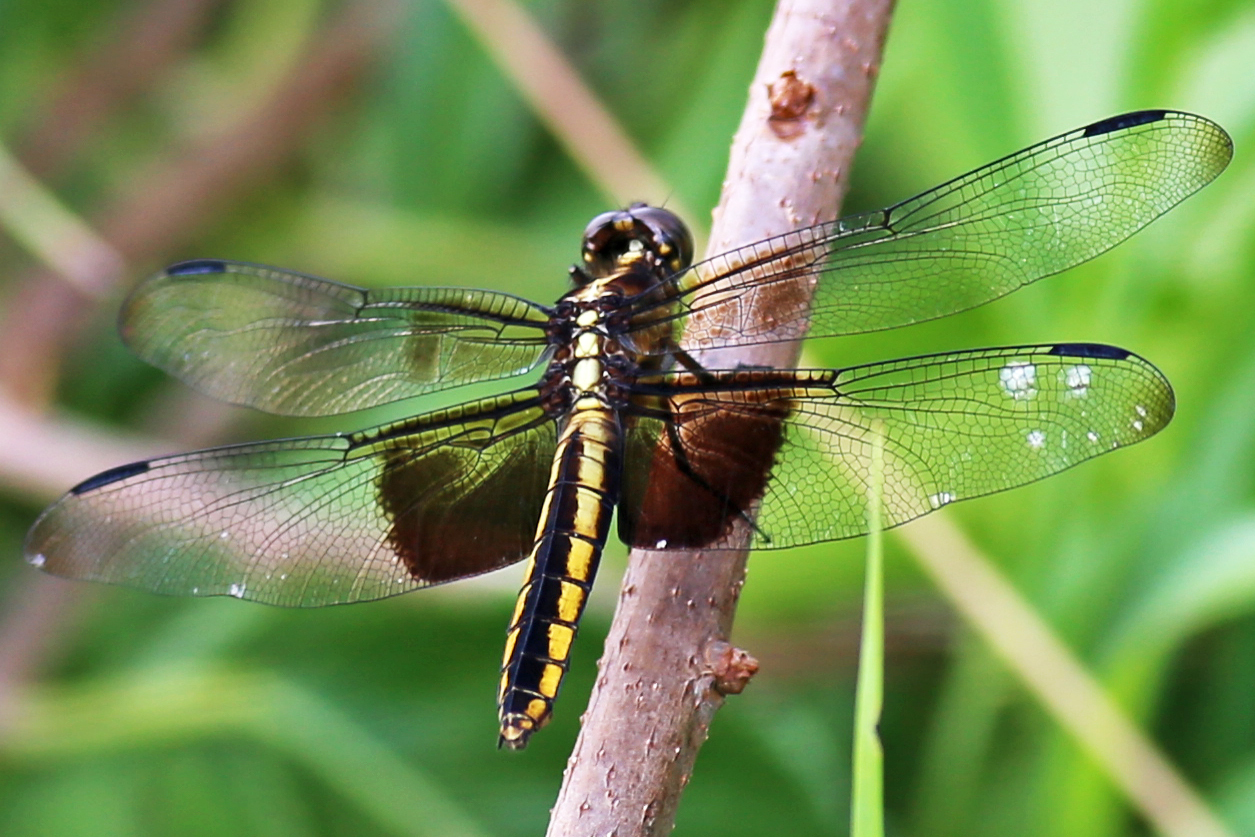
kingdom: Animalia
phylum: Arthropoda
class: Insecta
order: Odonata
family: Libellulidae
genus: Libellula
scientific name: Libellula luctuosa
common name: Widow skimmer
